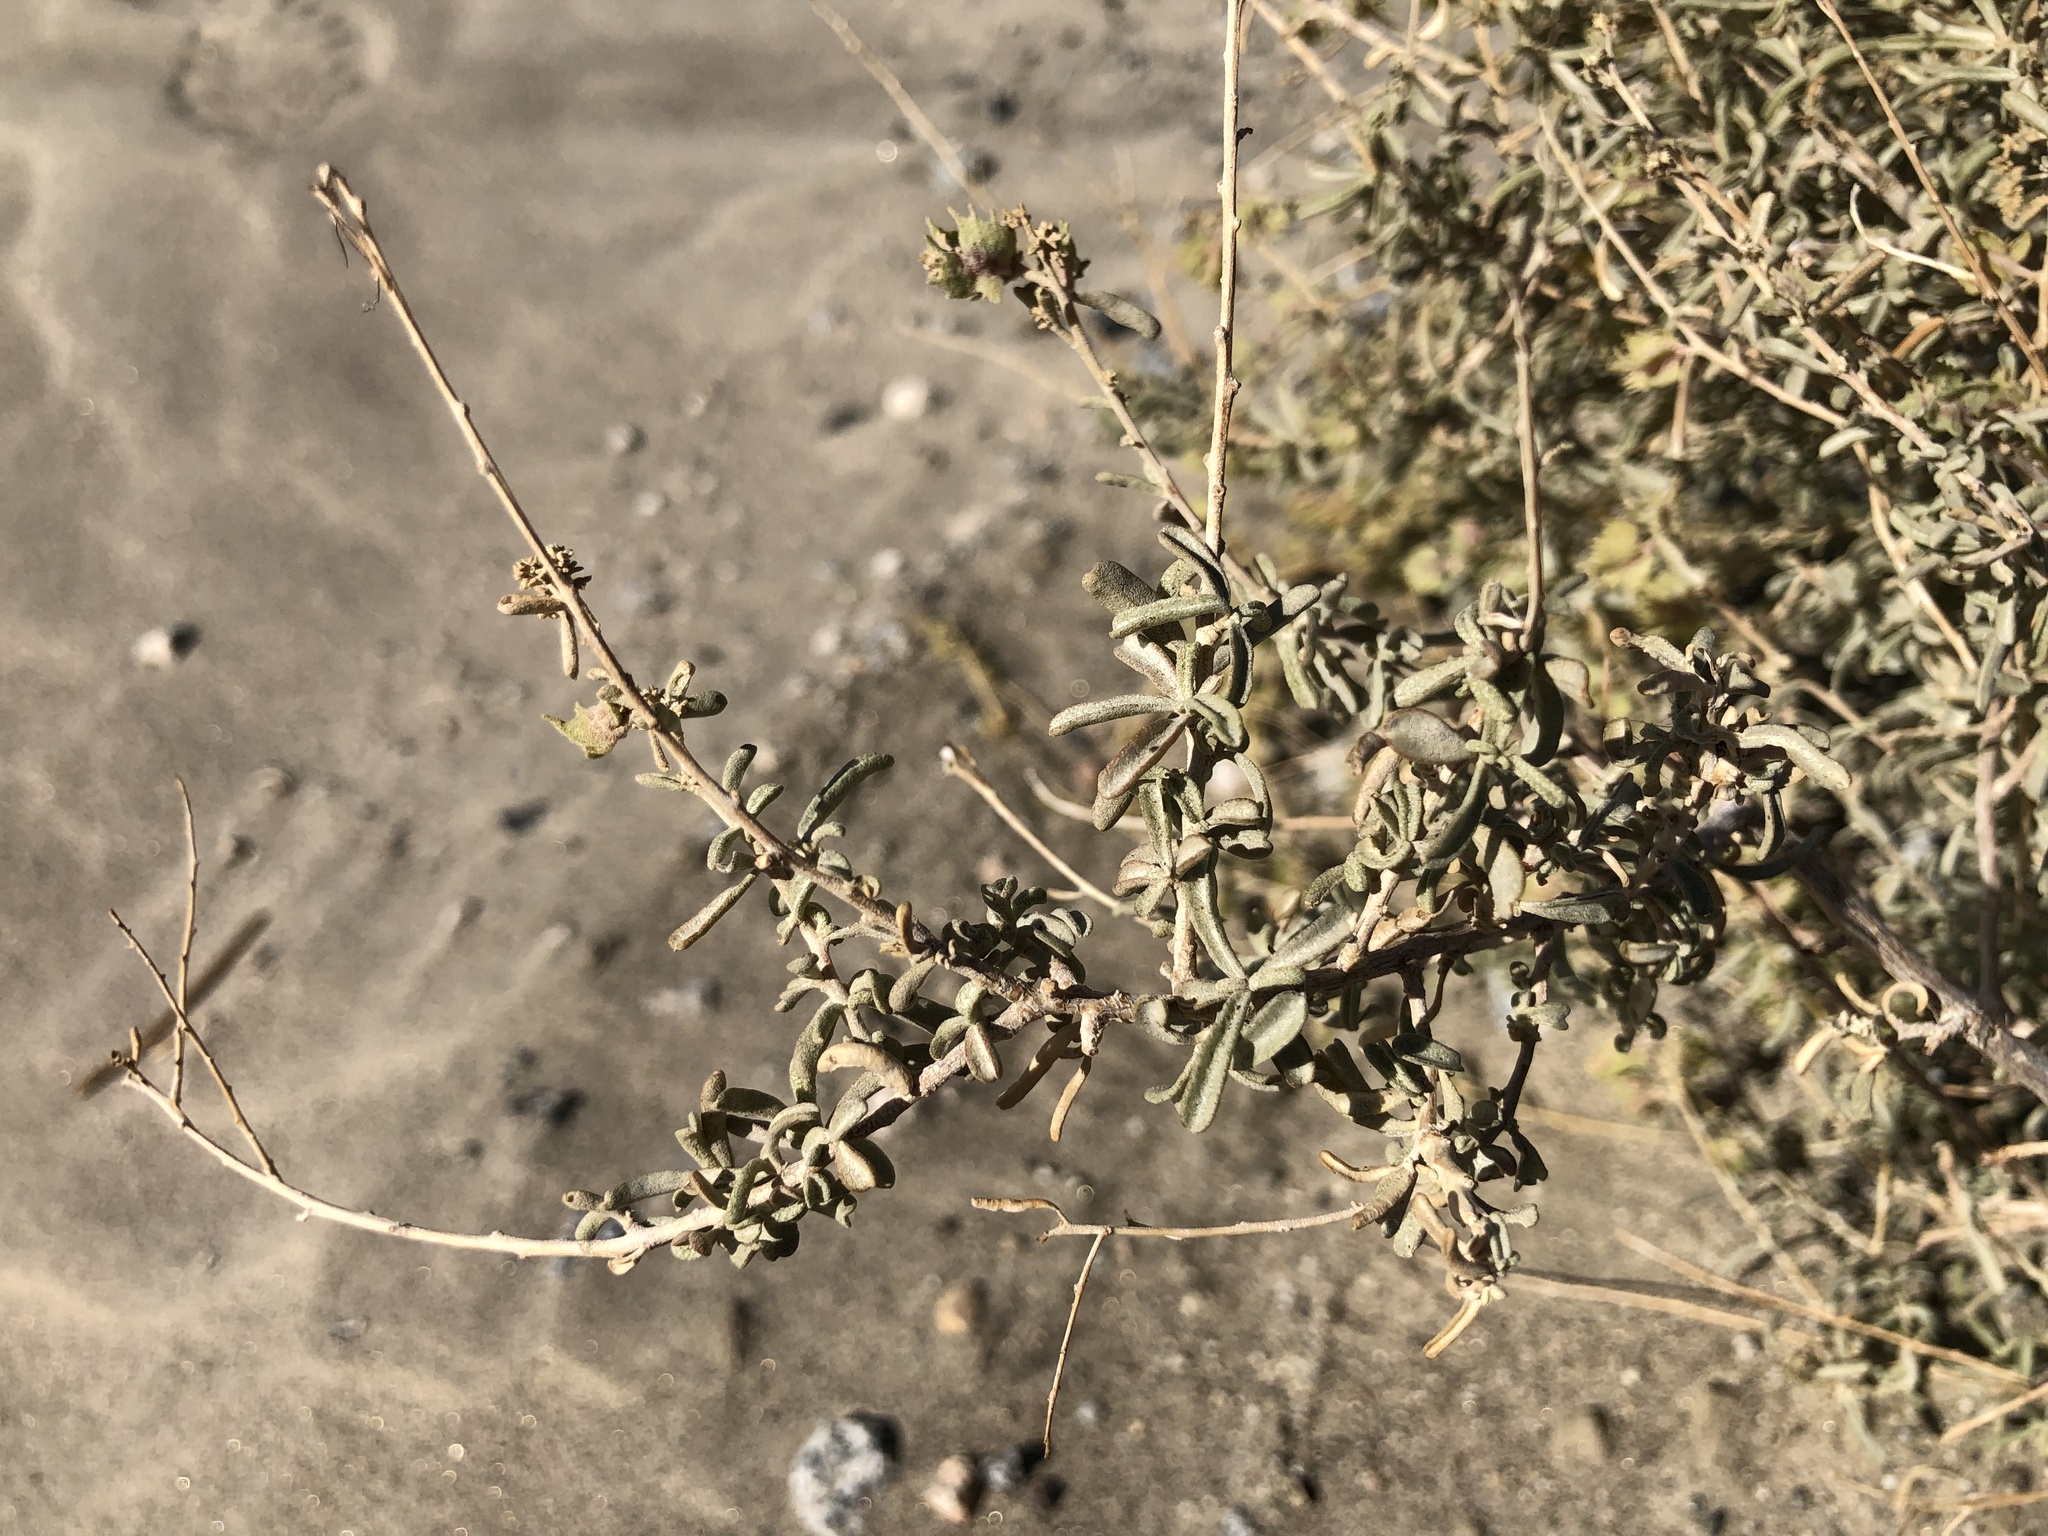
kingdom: Plantae
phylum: Tracheophyta
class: Magnoliopsida
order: Caryophyllales
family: Amaranthaceae
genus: Atriplex
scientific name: Atriplex canescens
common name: Four-wing saltbush
